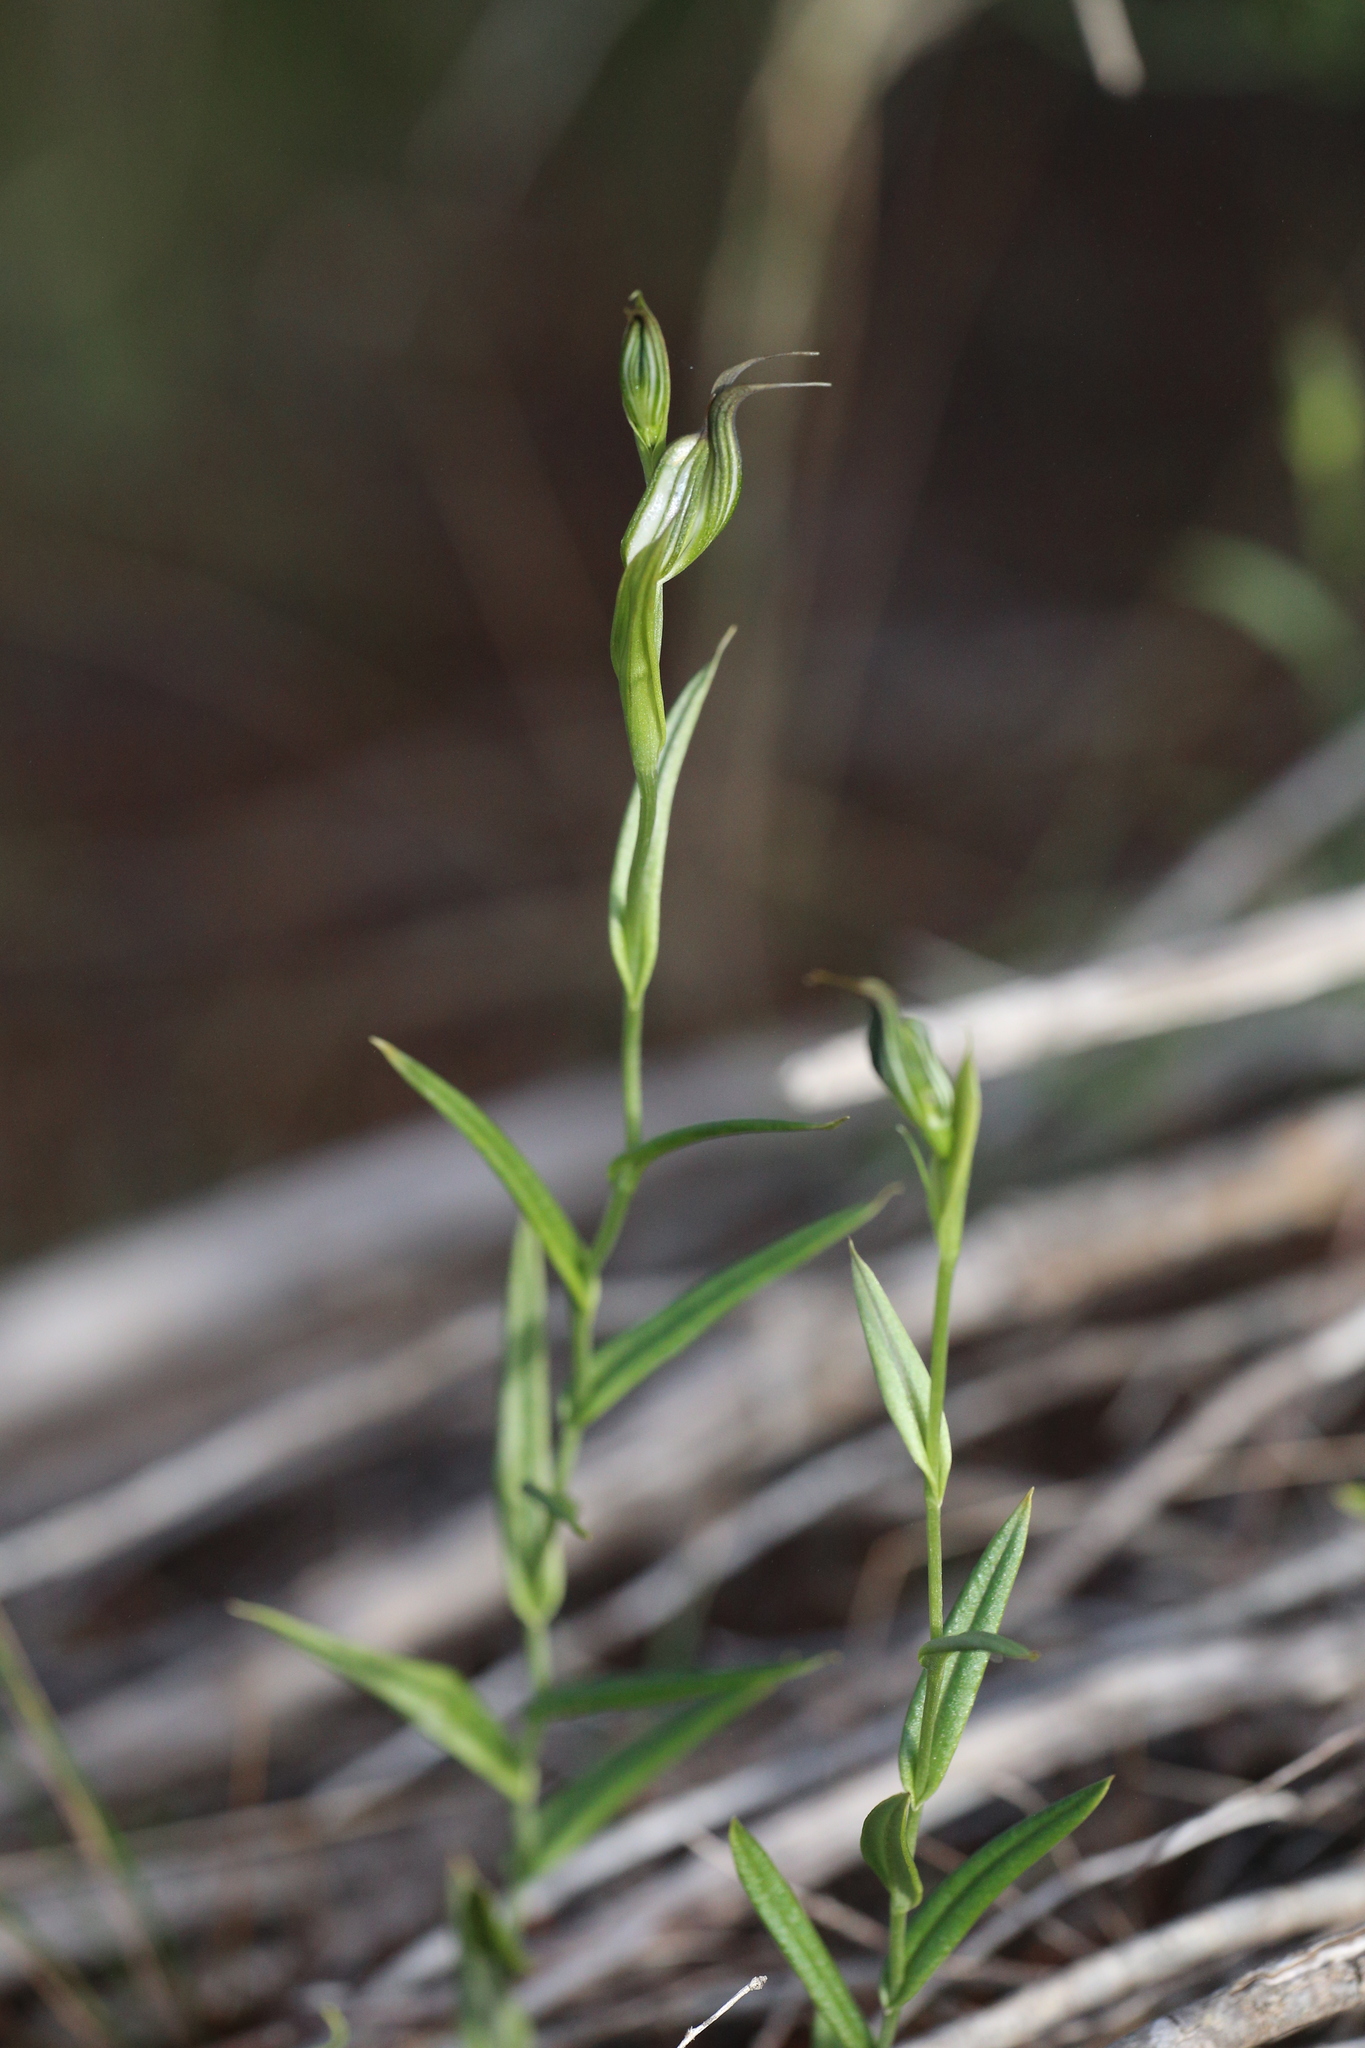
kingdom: Plantae
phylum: Tracheophyta
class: Liliopsida
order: Asparagales
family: Orchidaceae
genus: Pterostylis
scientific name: Pterostylis recurva
